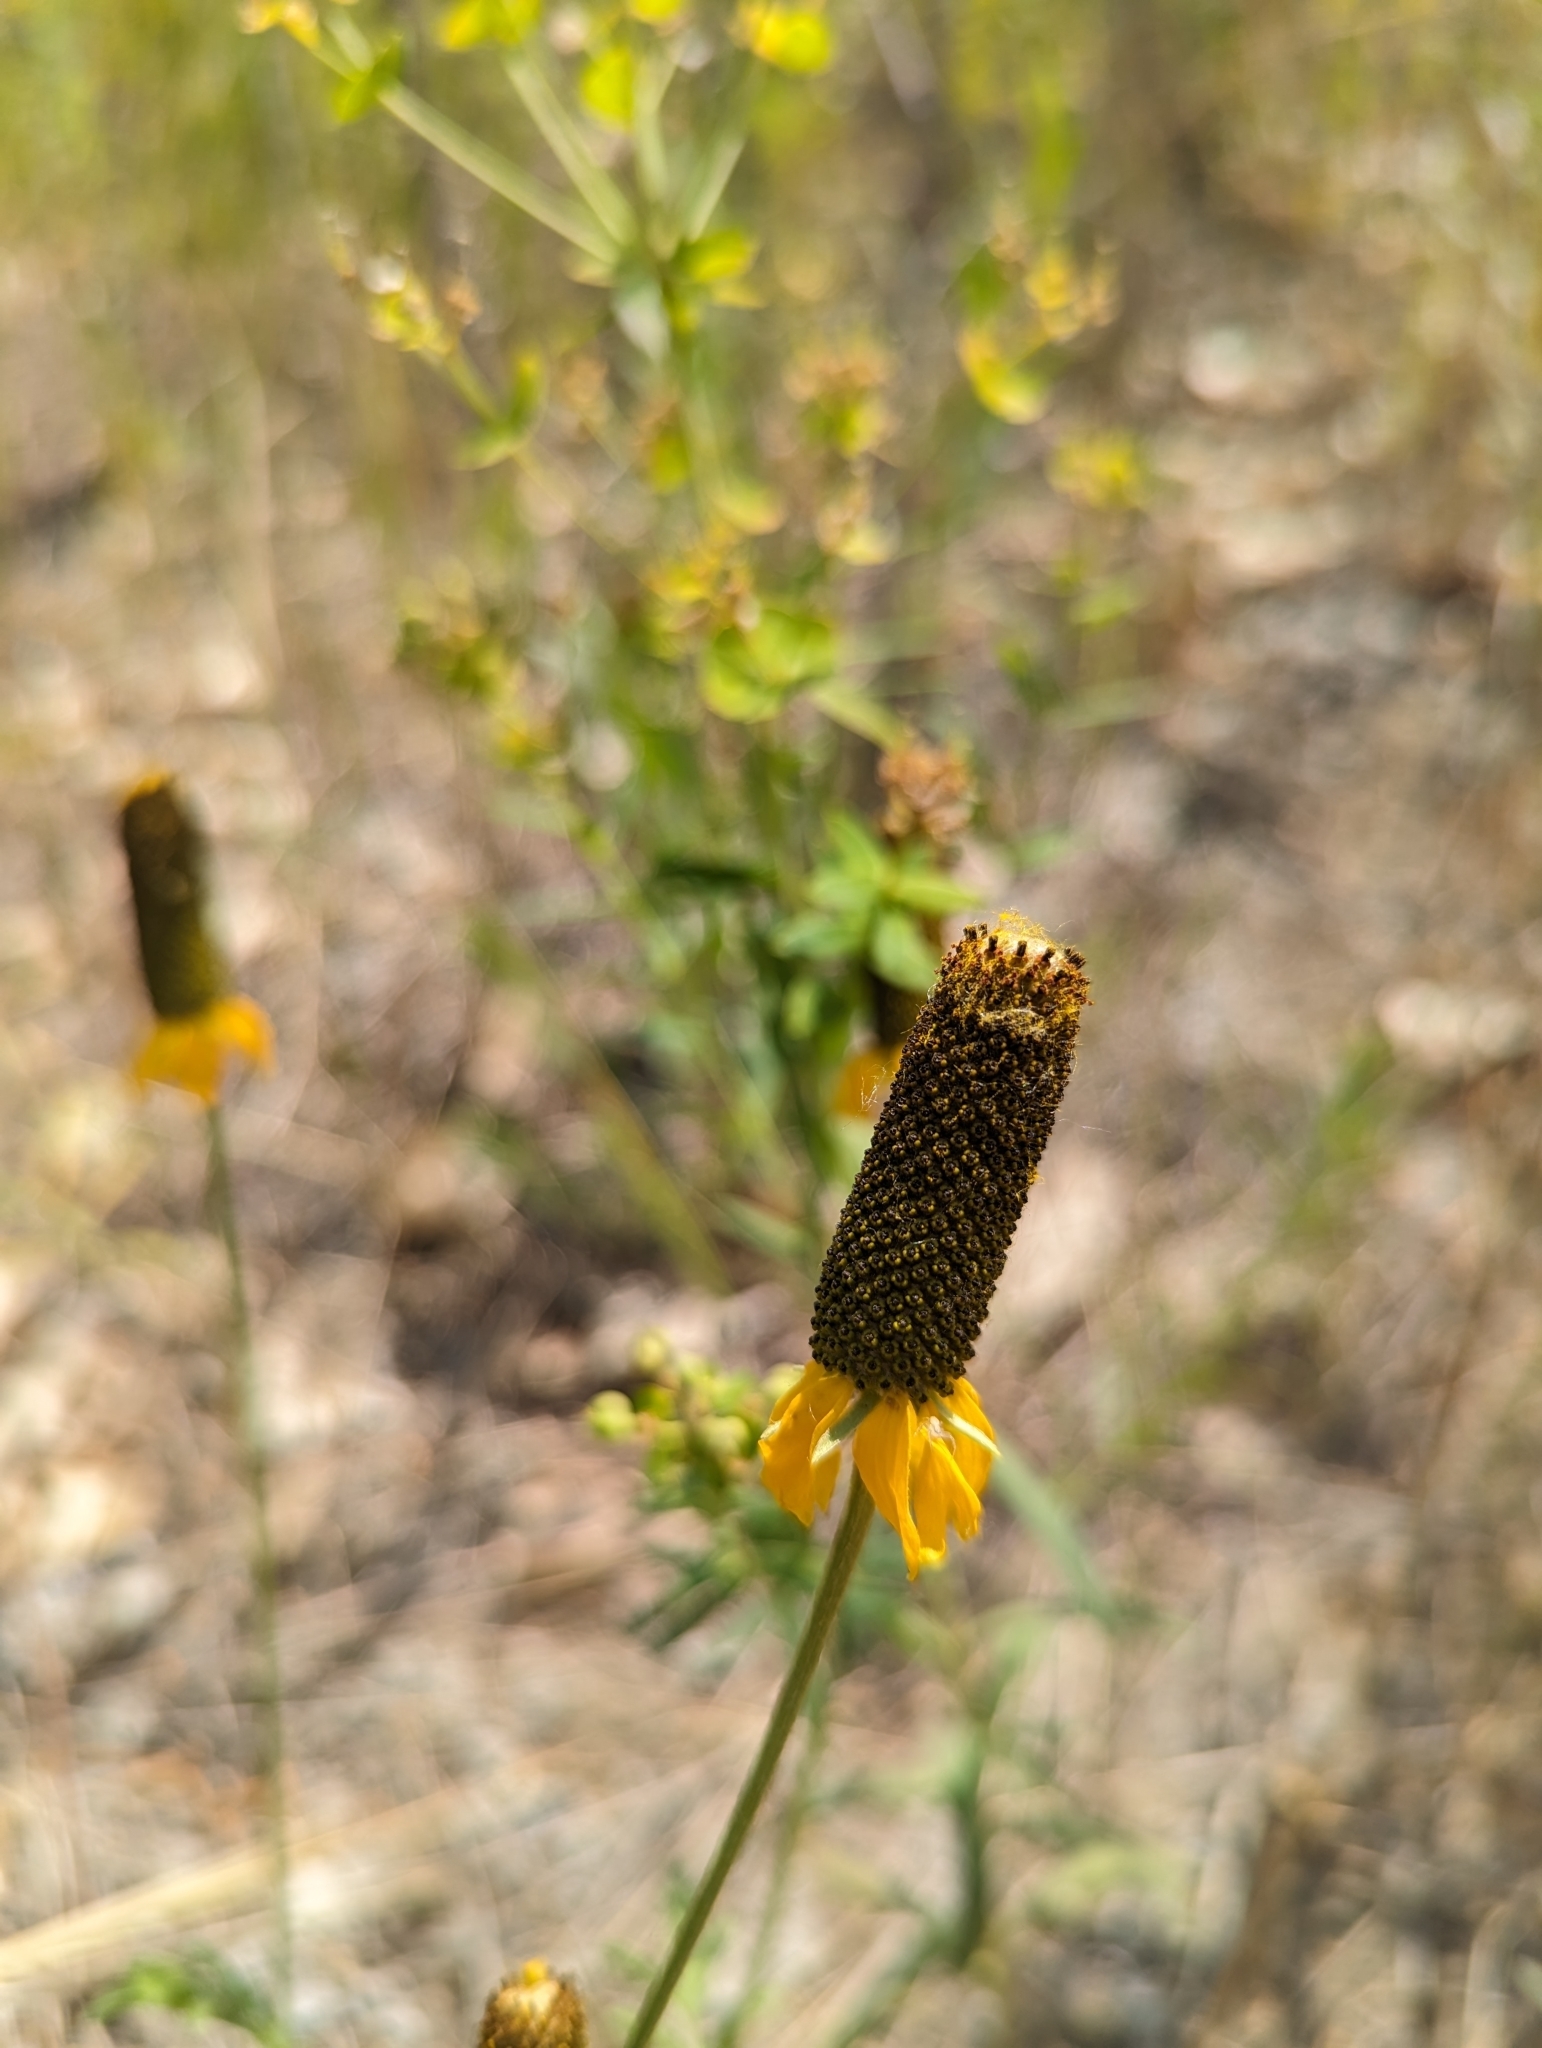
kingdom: Plantae
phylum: Tracheophyta
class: Magnoliopsida
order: Asterales
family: Asteraceae
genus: Ratibida
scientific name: Ratibida columnifera
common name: Prairie coneflower
